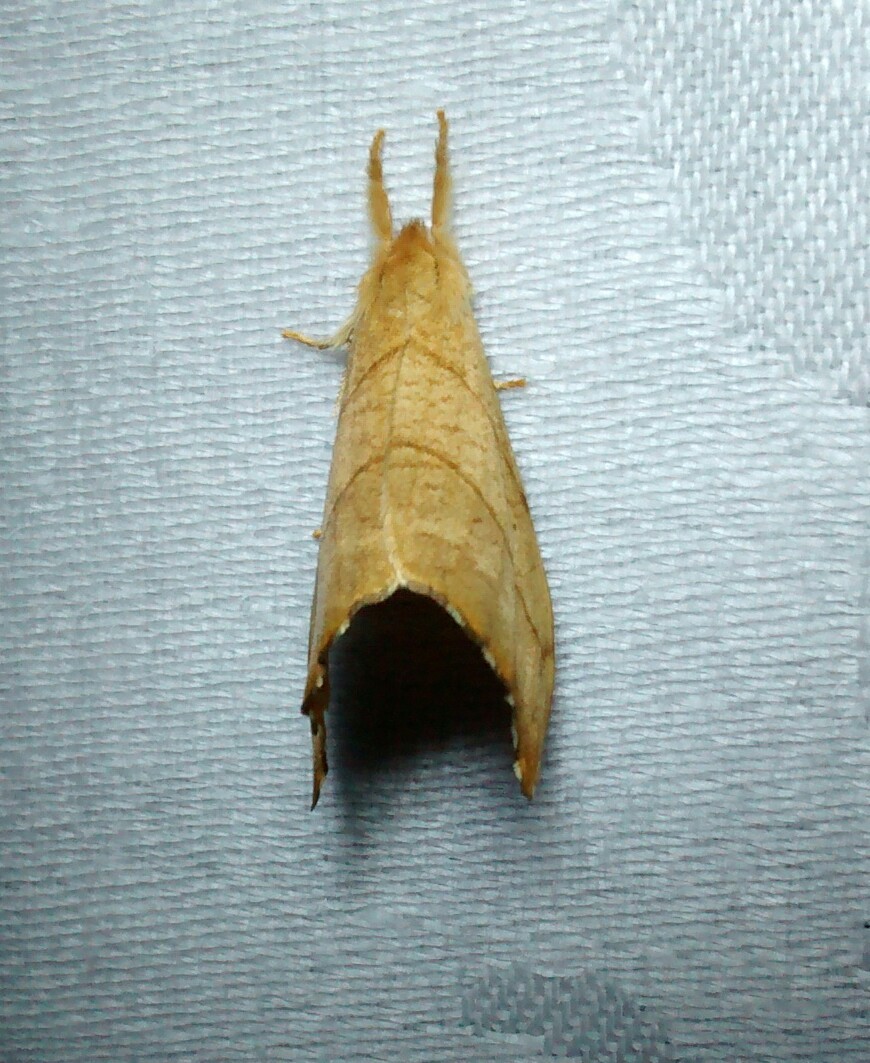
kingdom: Animalia
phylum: Arthropoda
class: Insecta
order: Lepidoptera
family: Drepanidae
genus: Falcaria
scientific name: Falcaria bilineata
